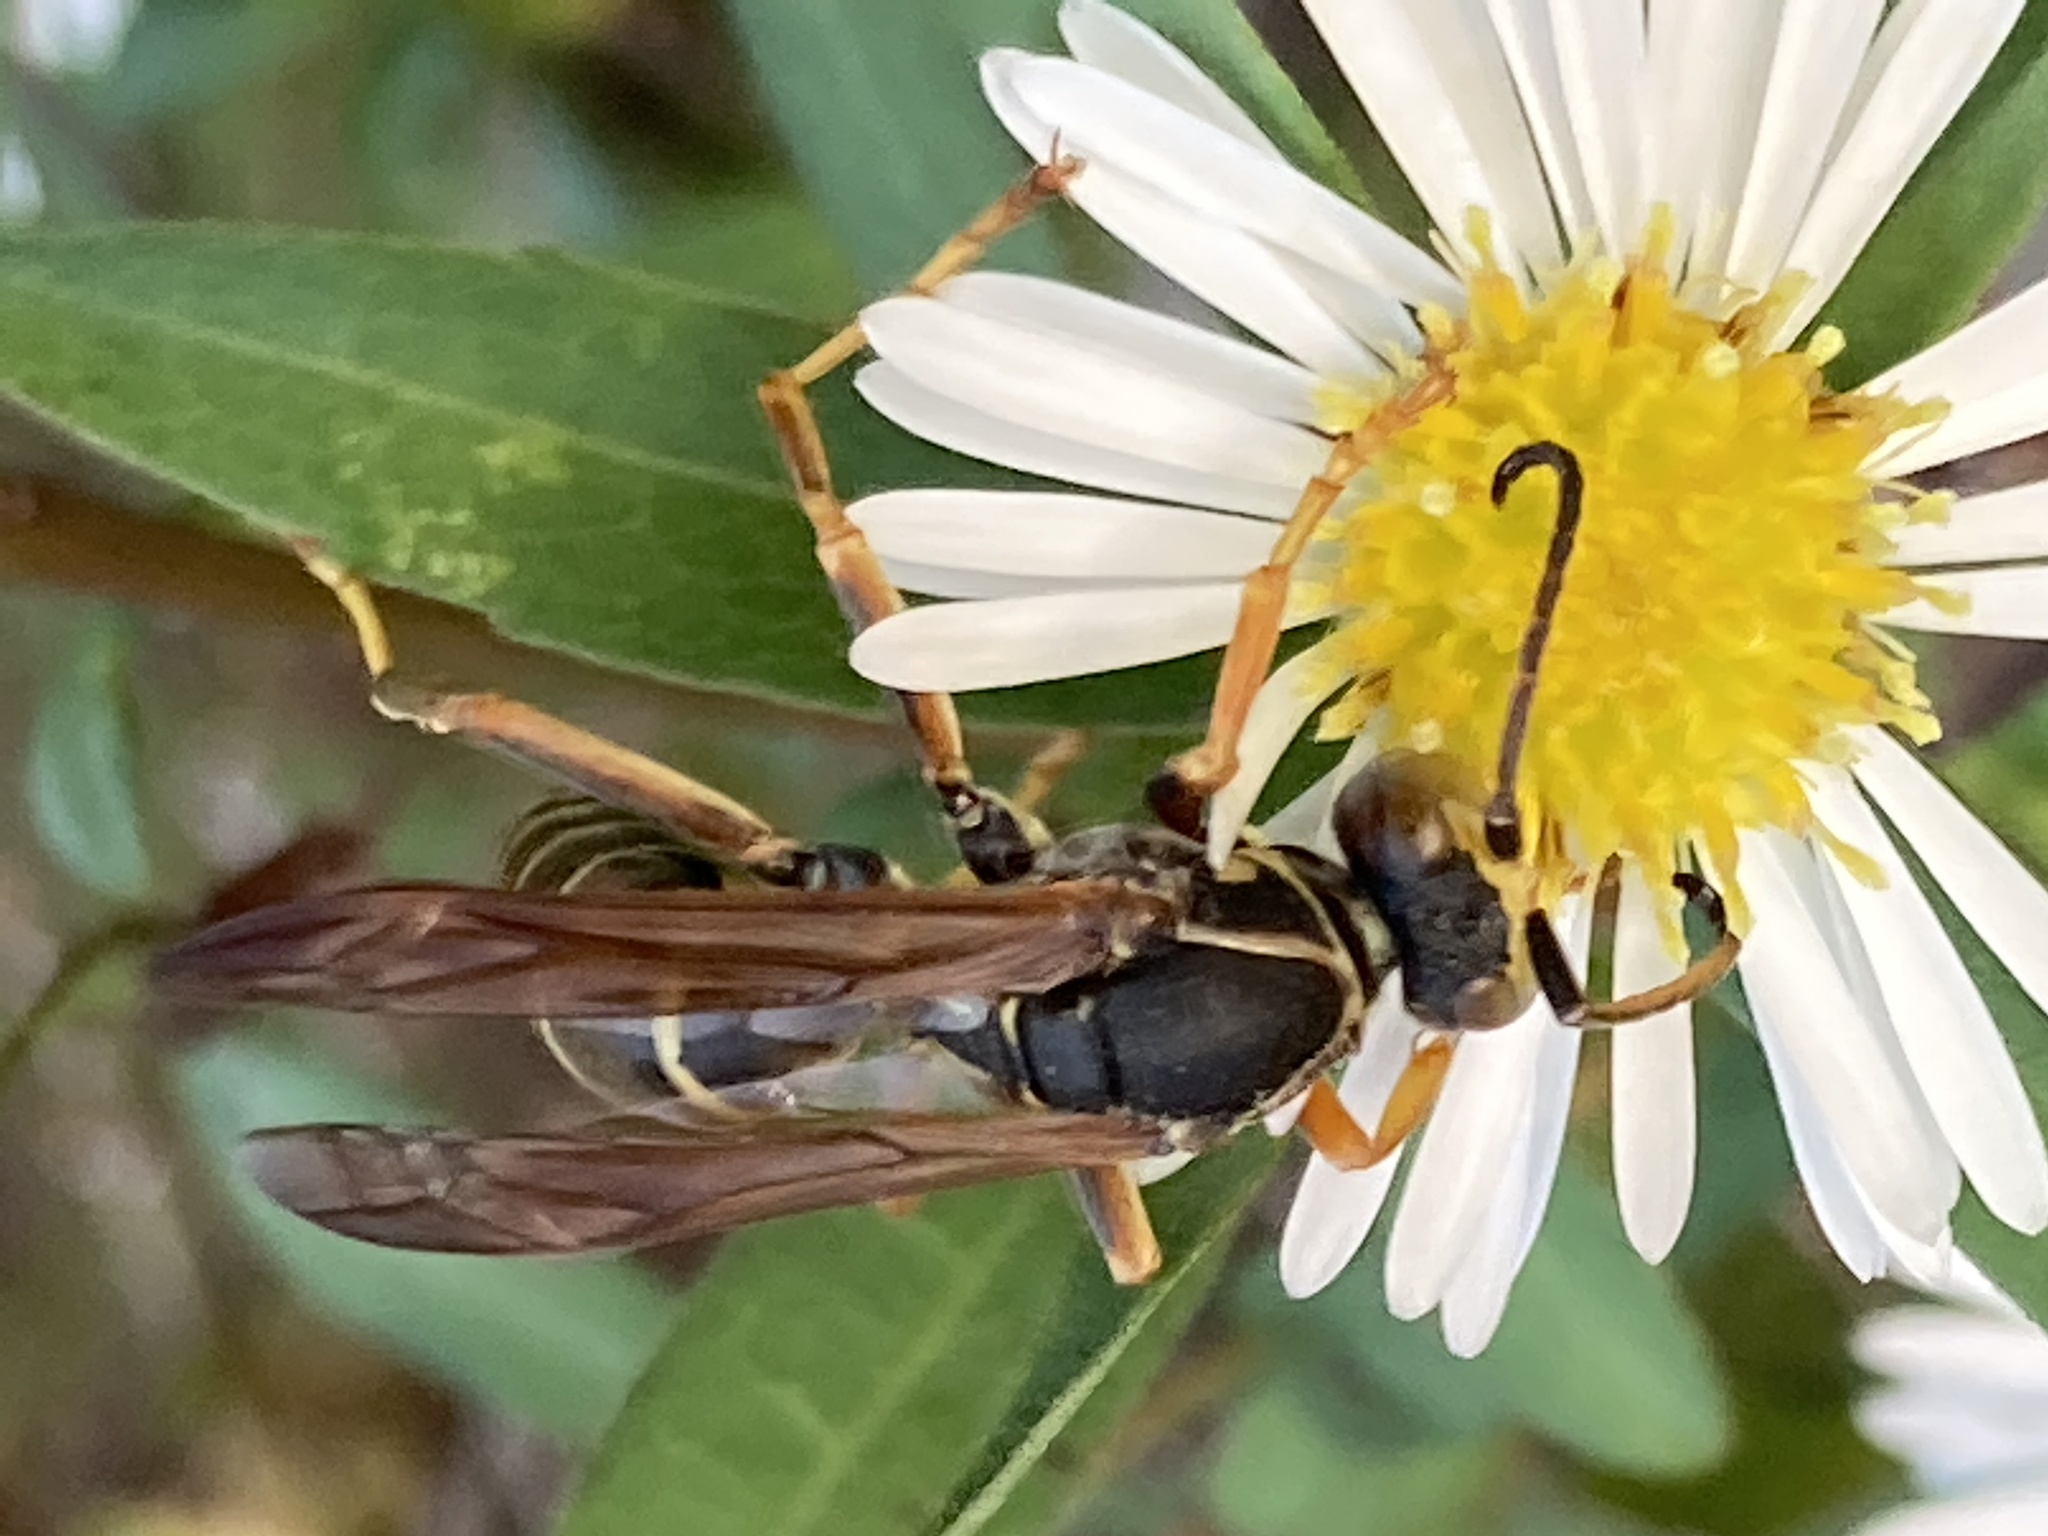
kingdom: Animalia
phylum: Arthropoda
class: Insecta
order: Hymenoptera
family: Eumenidae
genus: Polistes
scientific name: Polistes fuscatus
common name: Dark paper wasp
